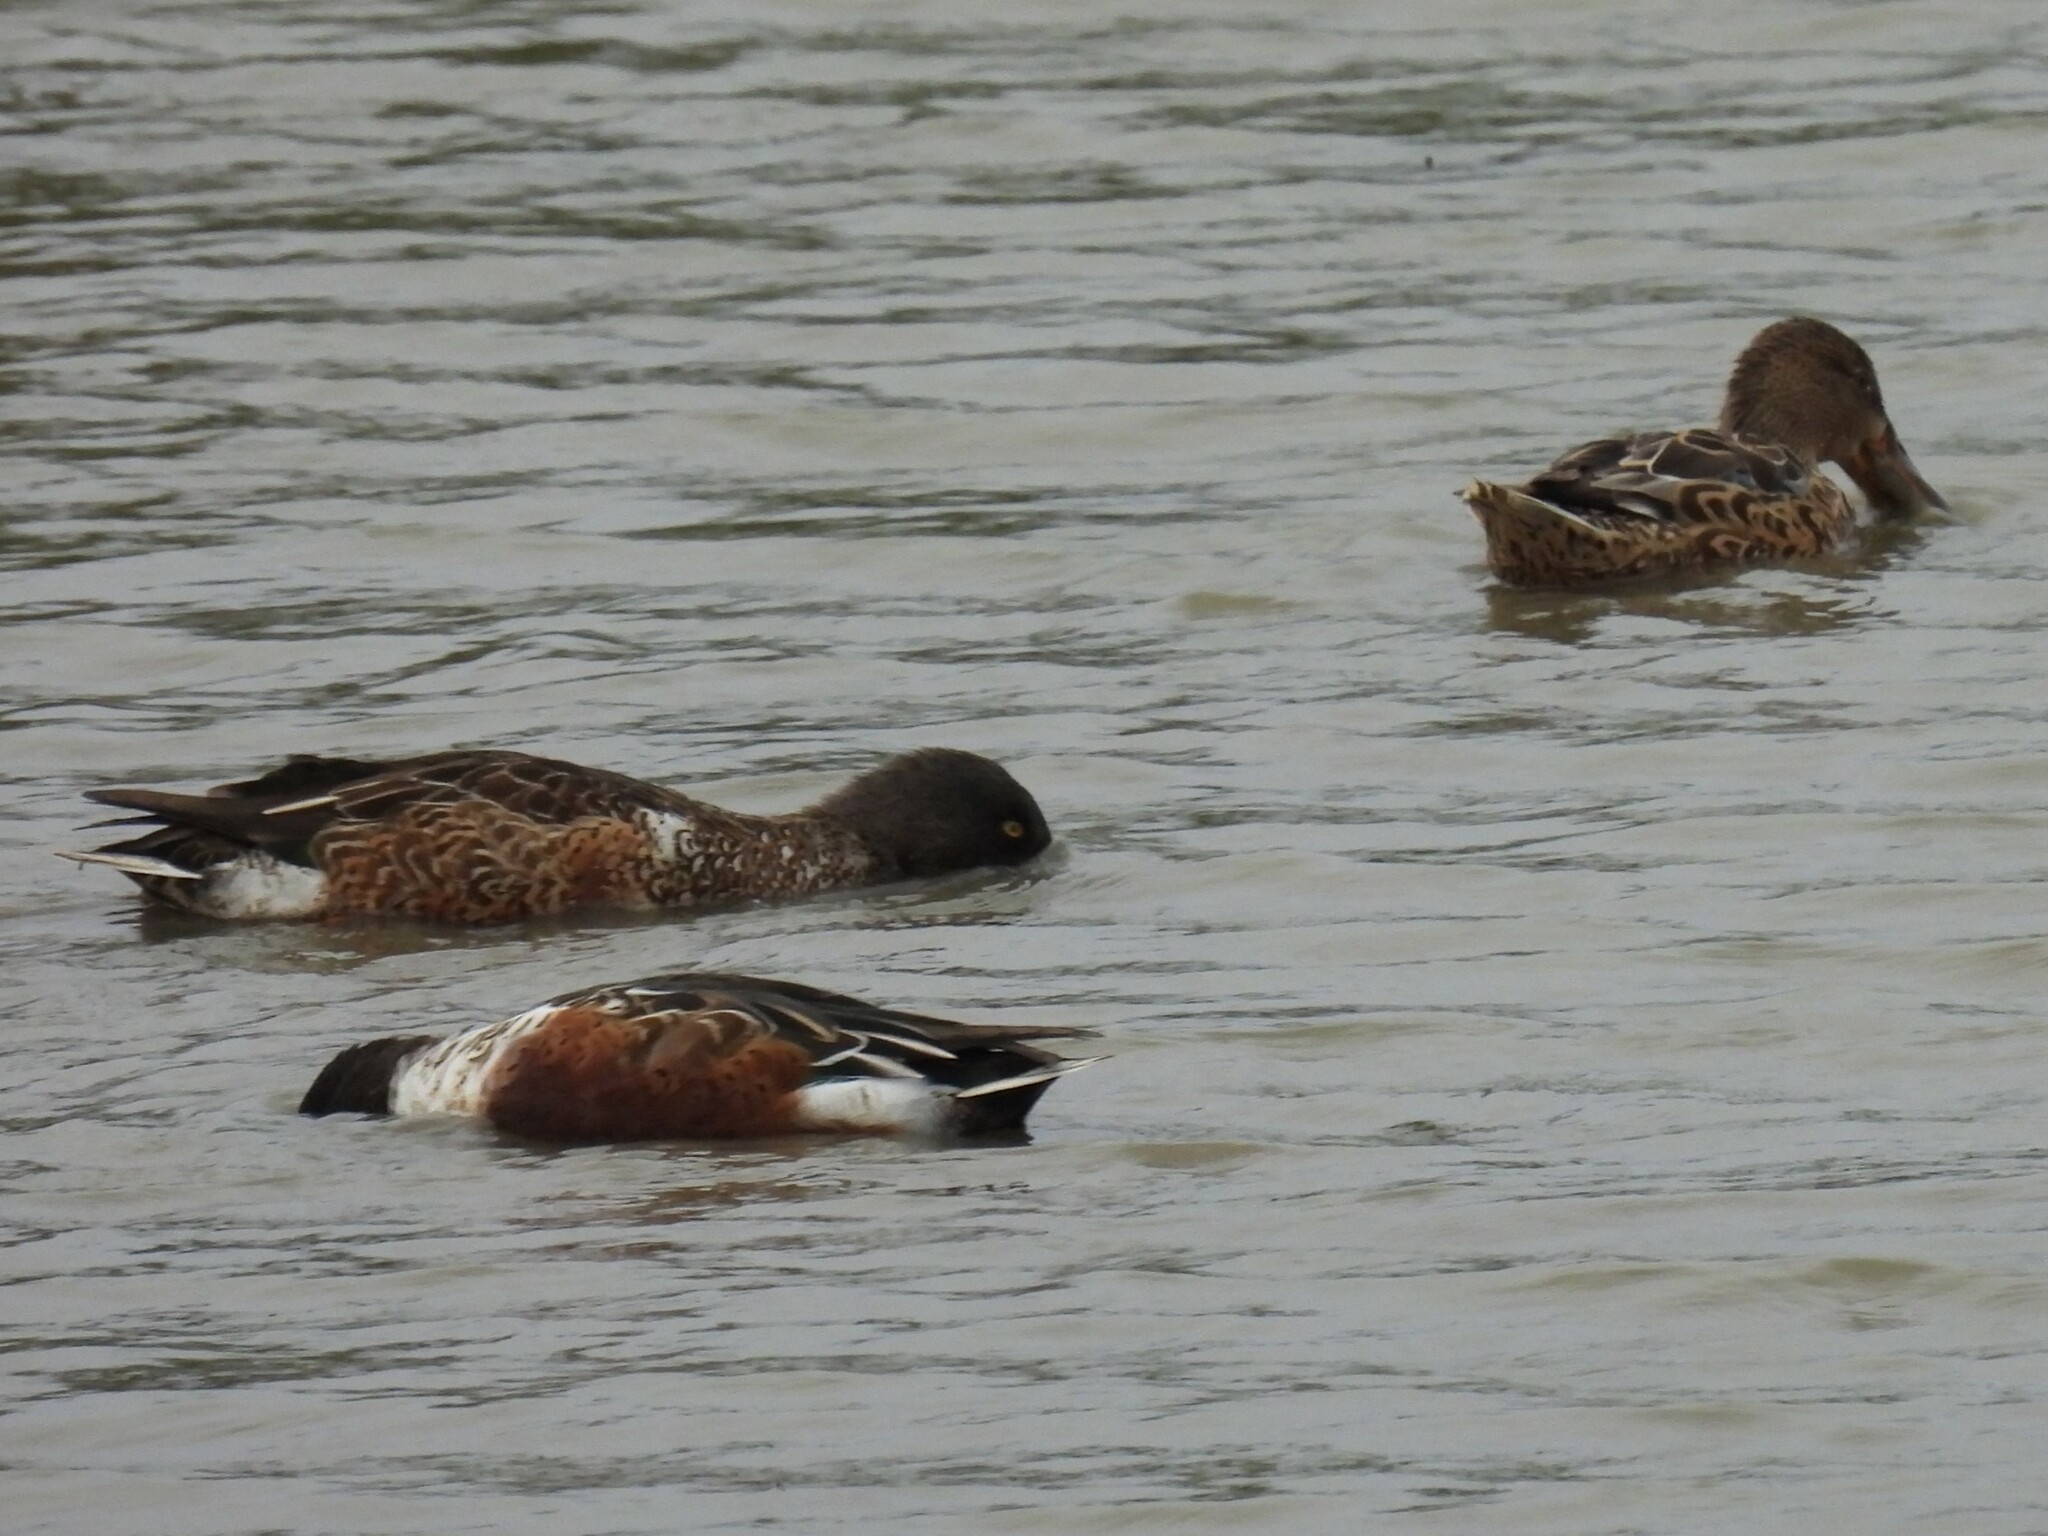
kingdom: Animalia
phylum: Chordata
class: Aves
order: Anseriformes
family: Anatidae
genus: Spatula
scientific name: Spatula clypeata
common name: Northern shoveler
